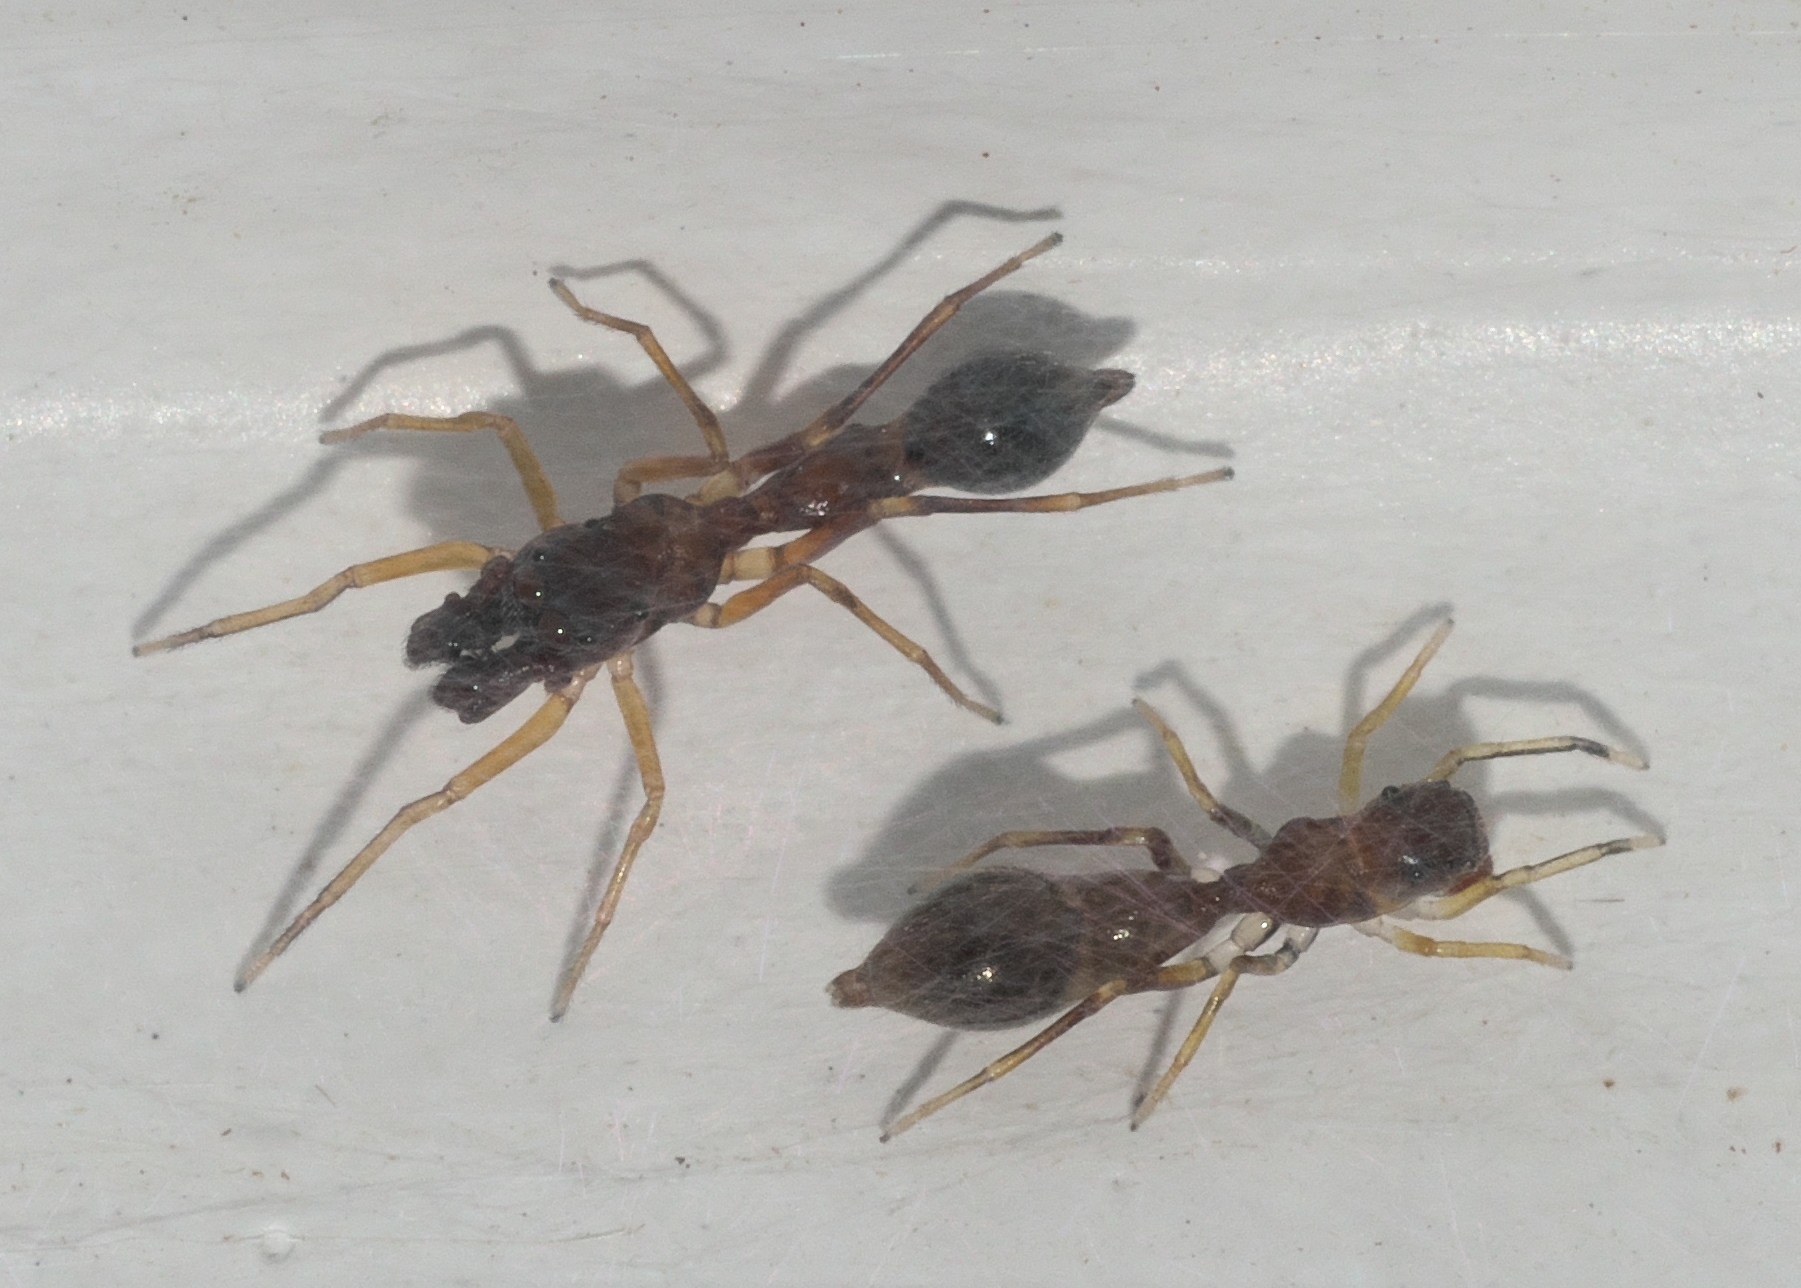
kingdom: Animalia
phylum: Arthropoda
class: Arachnida
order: Araneae
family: Salticidae
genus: Synemosyna
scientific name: Synemosyna formica
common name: Slender ant-mimic jumping spider
